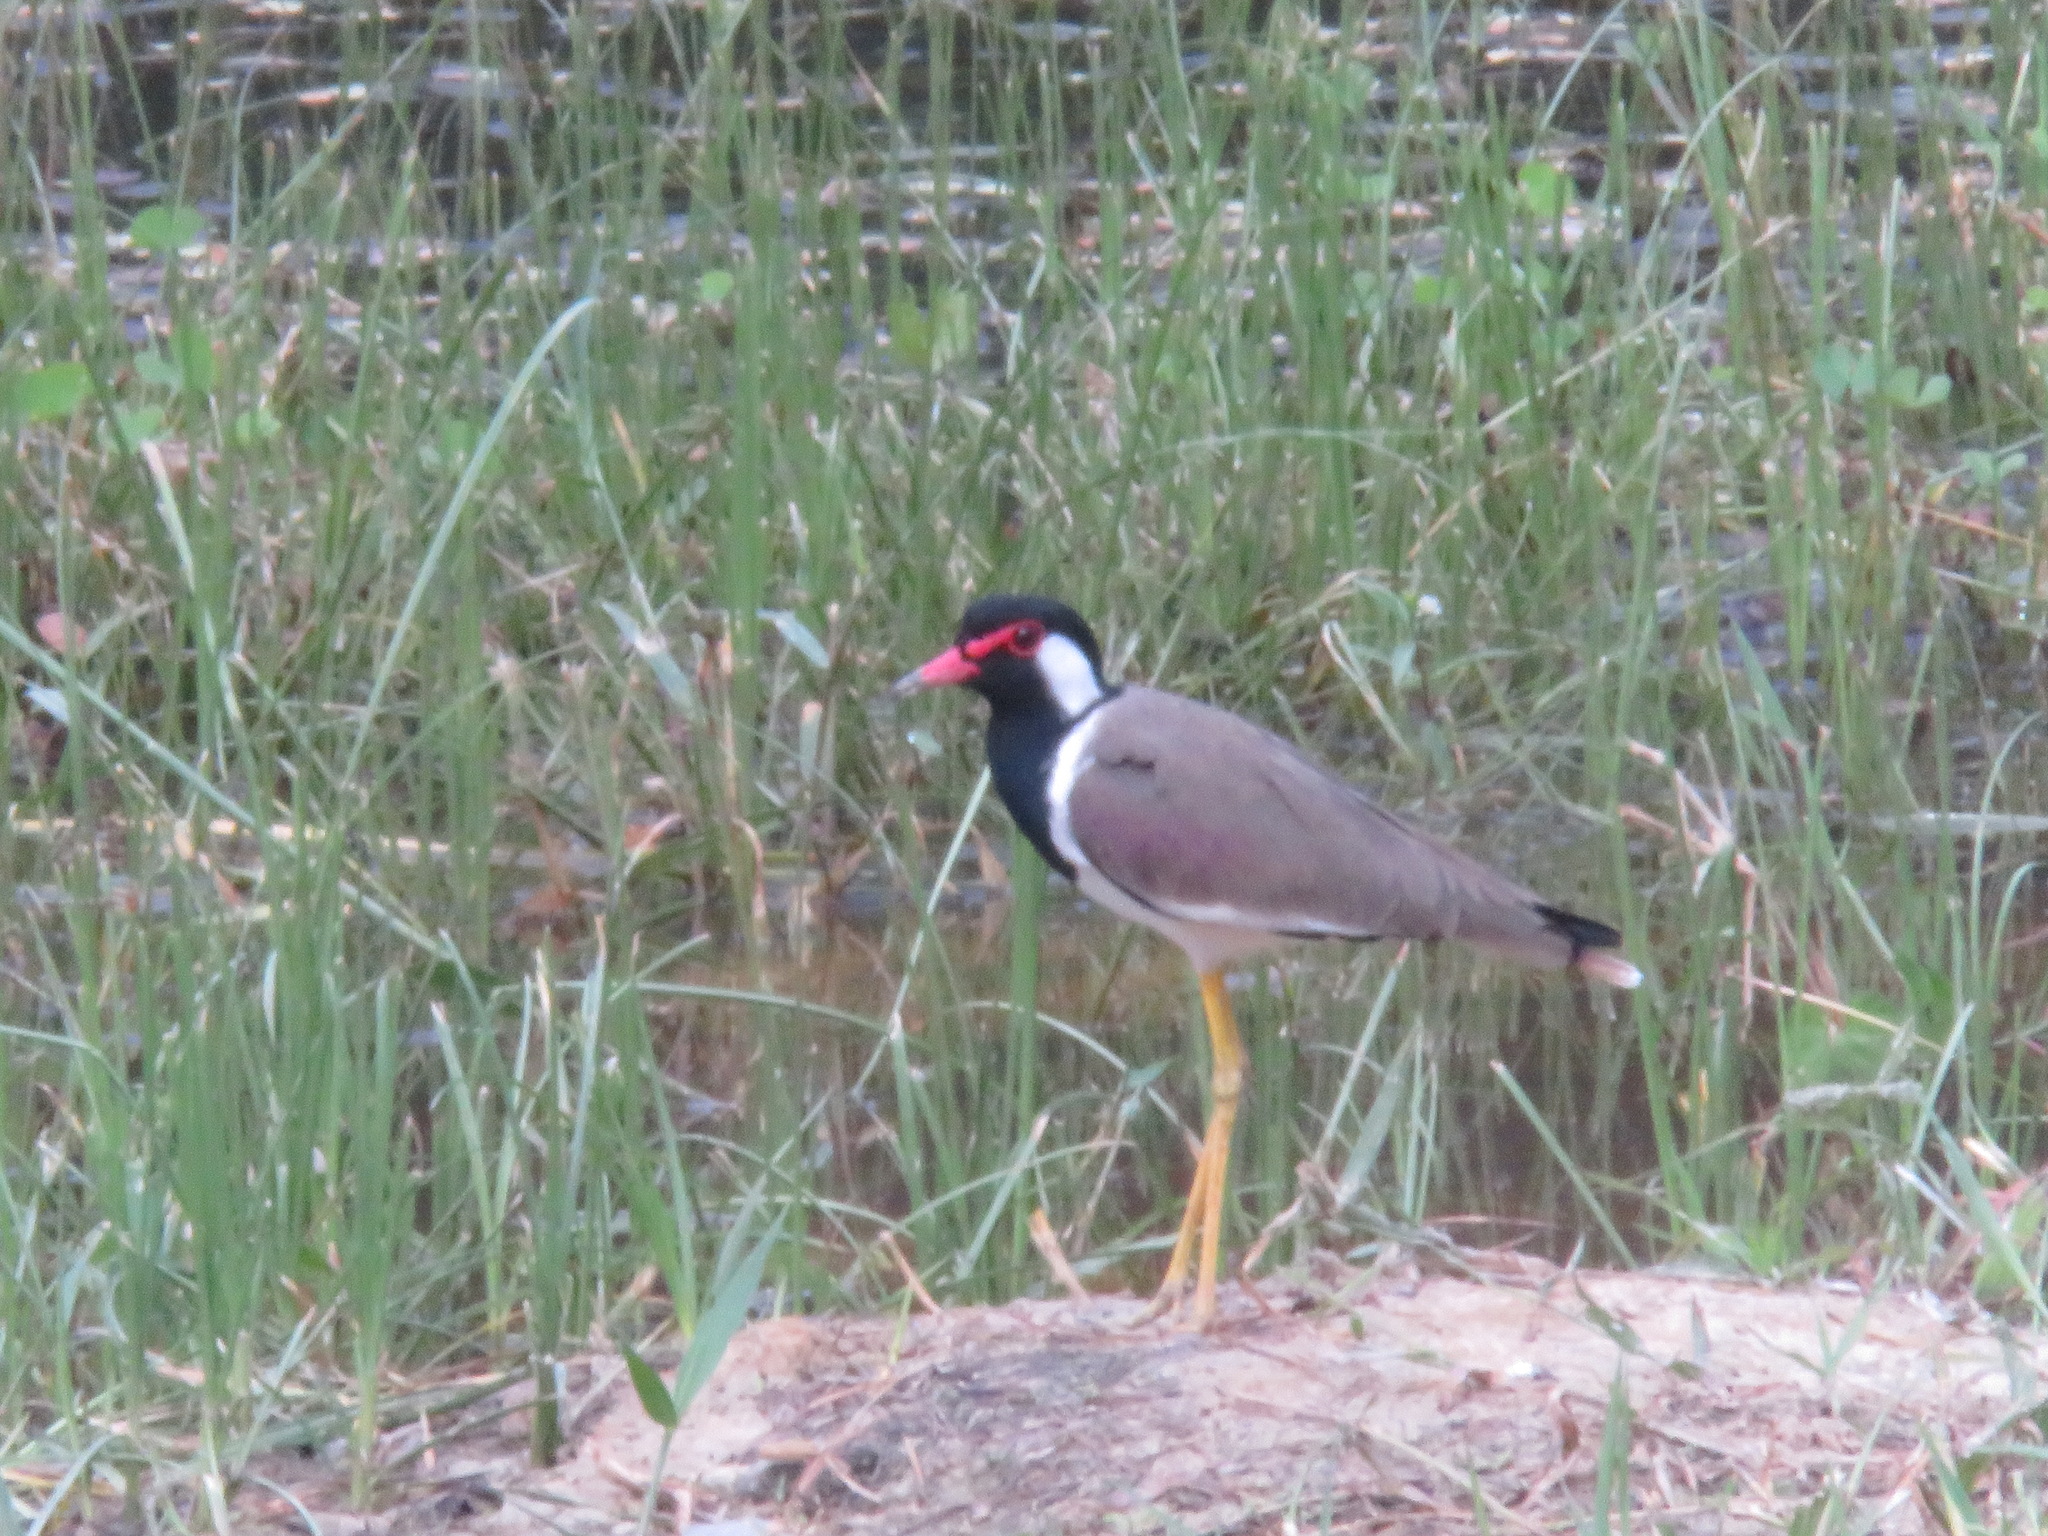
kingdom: Animalia
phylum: Chordata
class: Aves
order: Charadriiformes
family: Charadriidae
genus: Vanellus
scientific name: Vanellus indicus
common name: Red-wattled lapwing
